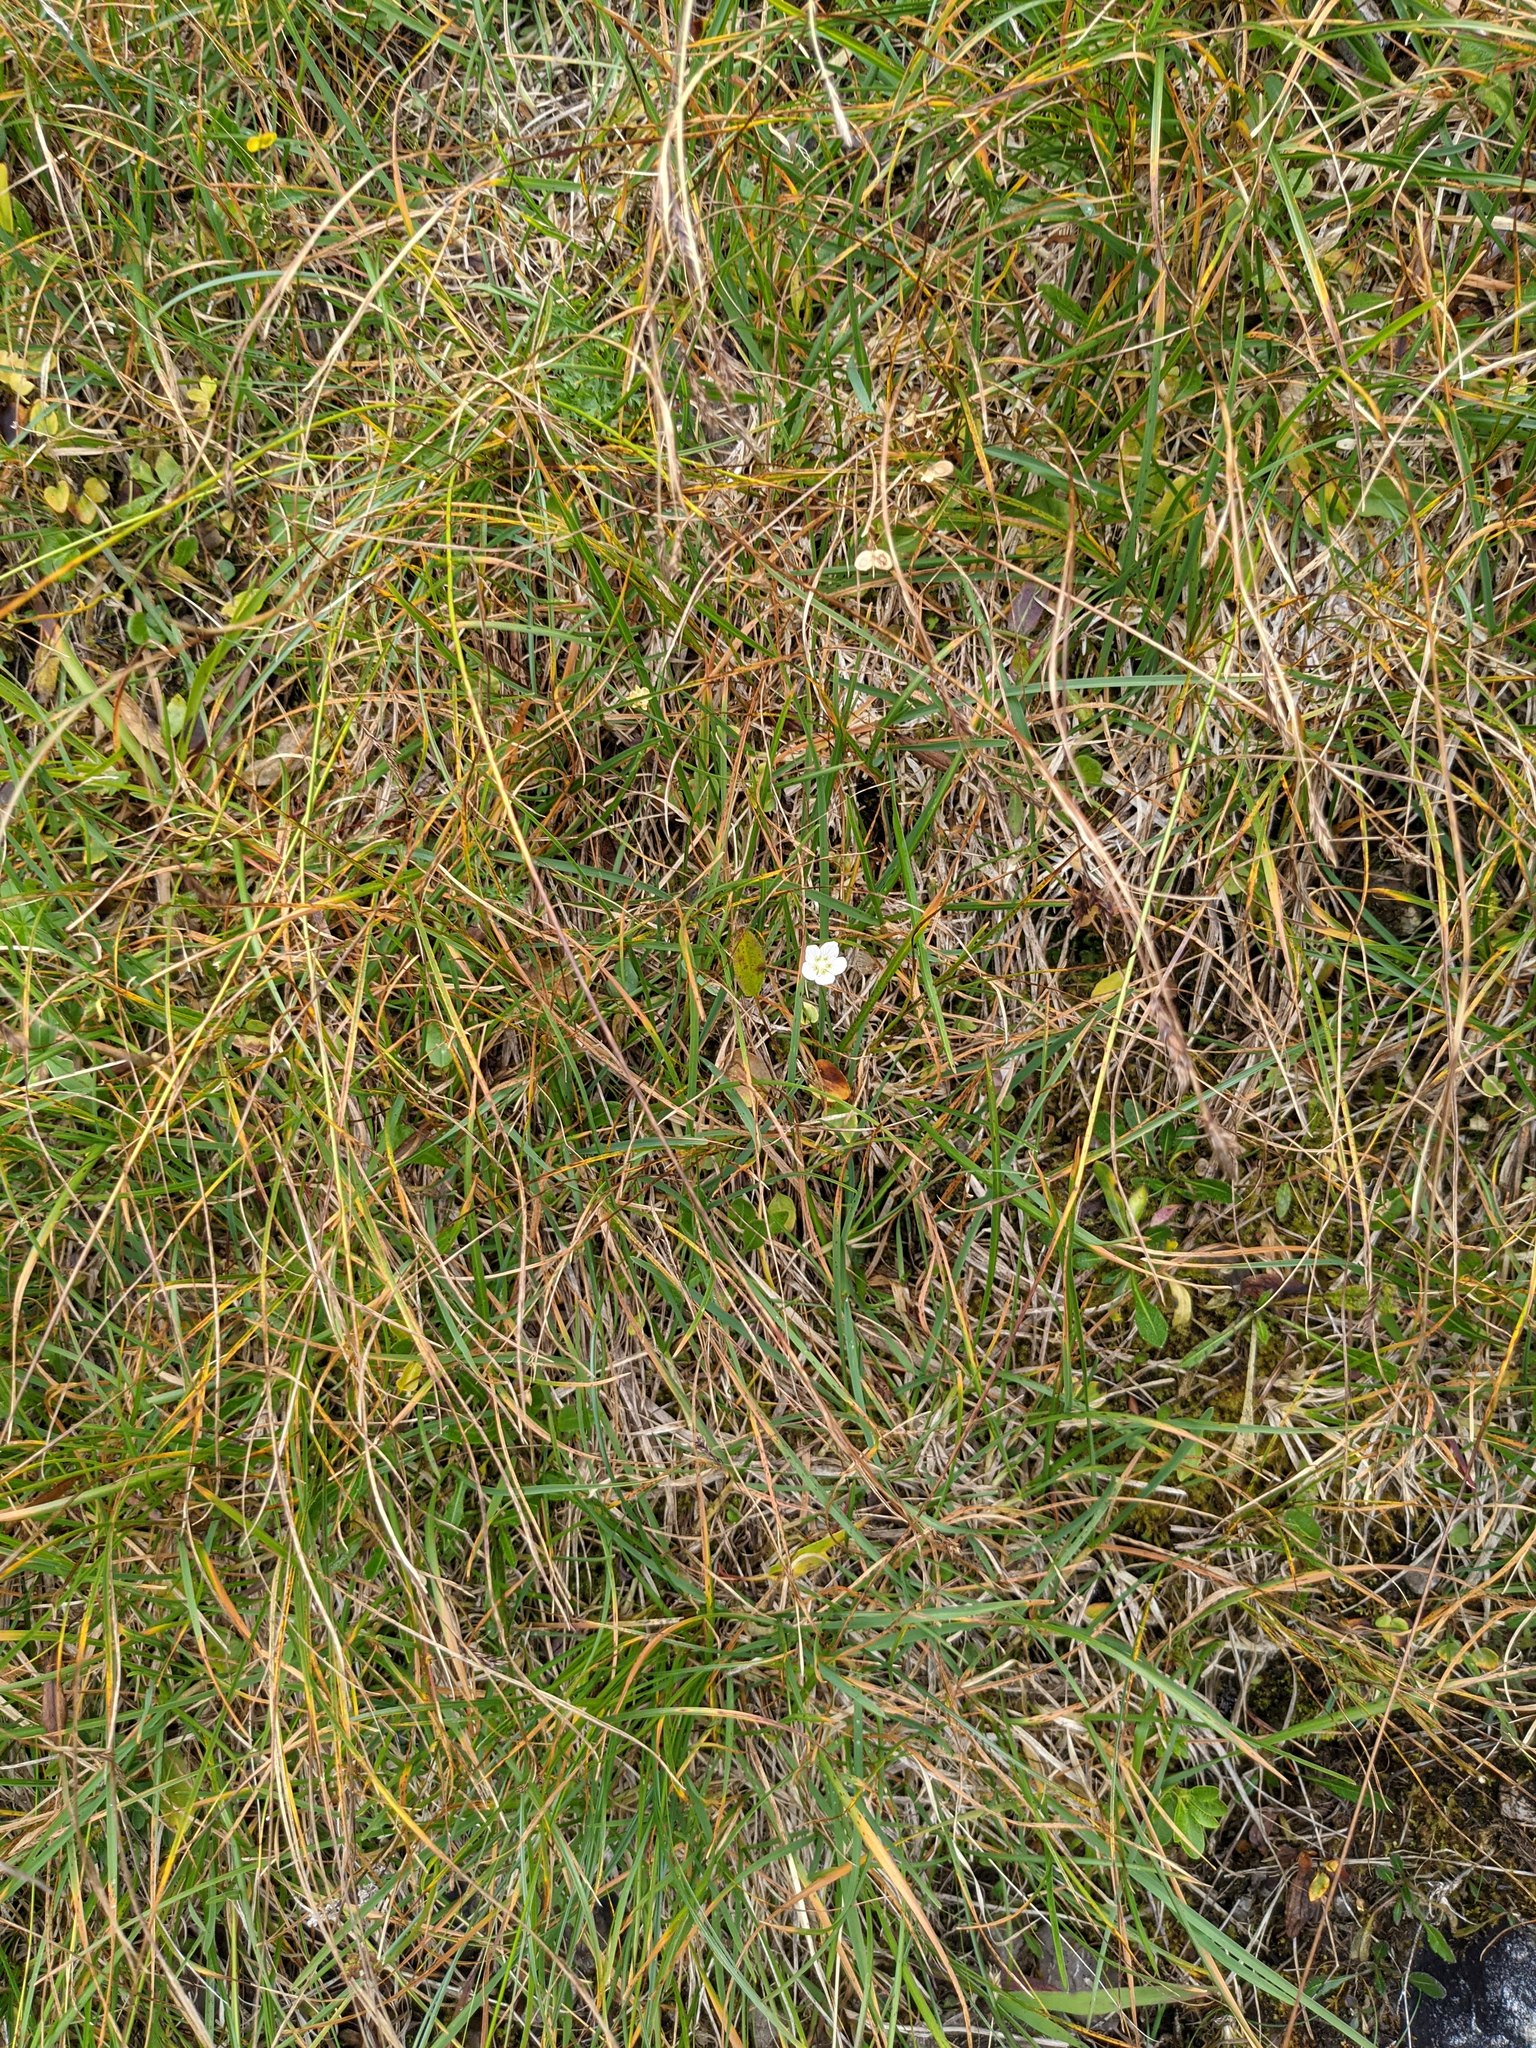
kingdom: Plantae
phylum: Tracheophyta
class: Magnoliopsida
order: Celastrales
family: Parnassiaceae
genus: Parnassia
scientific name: Parnassia palustris
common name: Grass-of-parnassus
